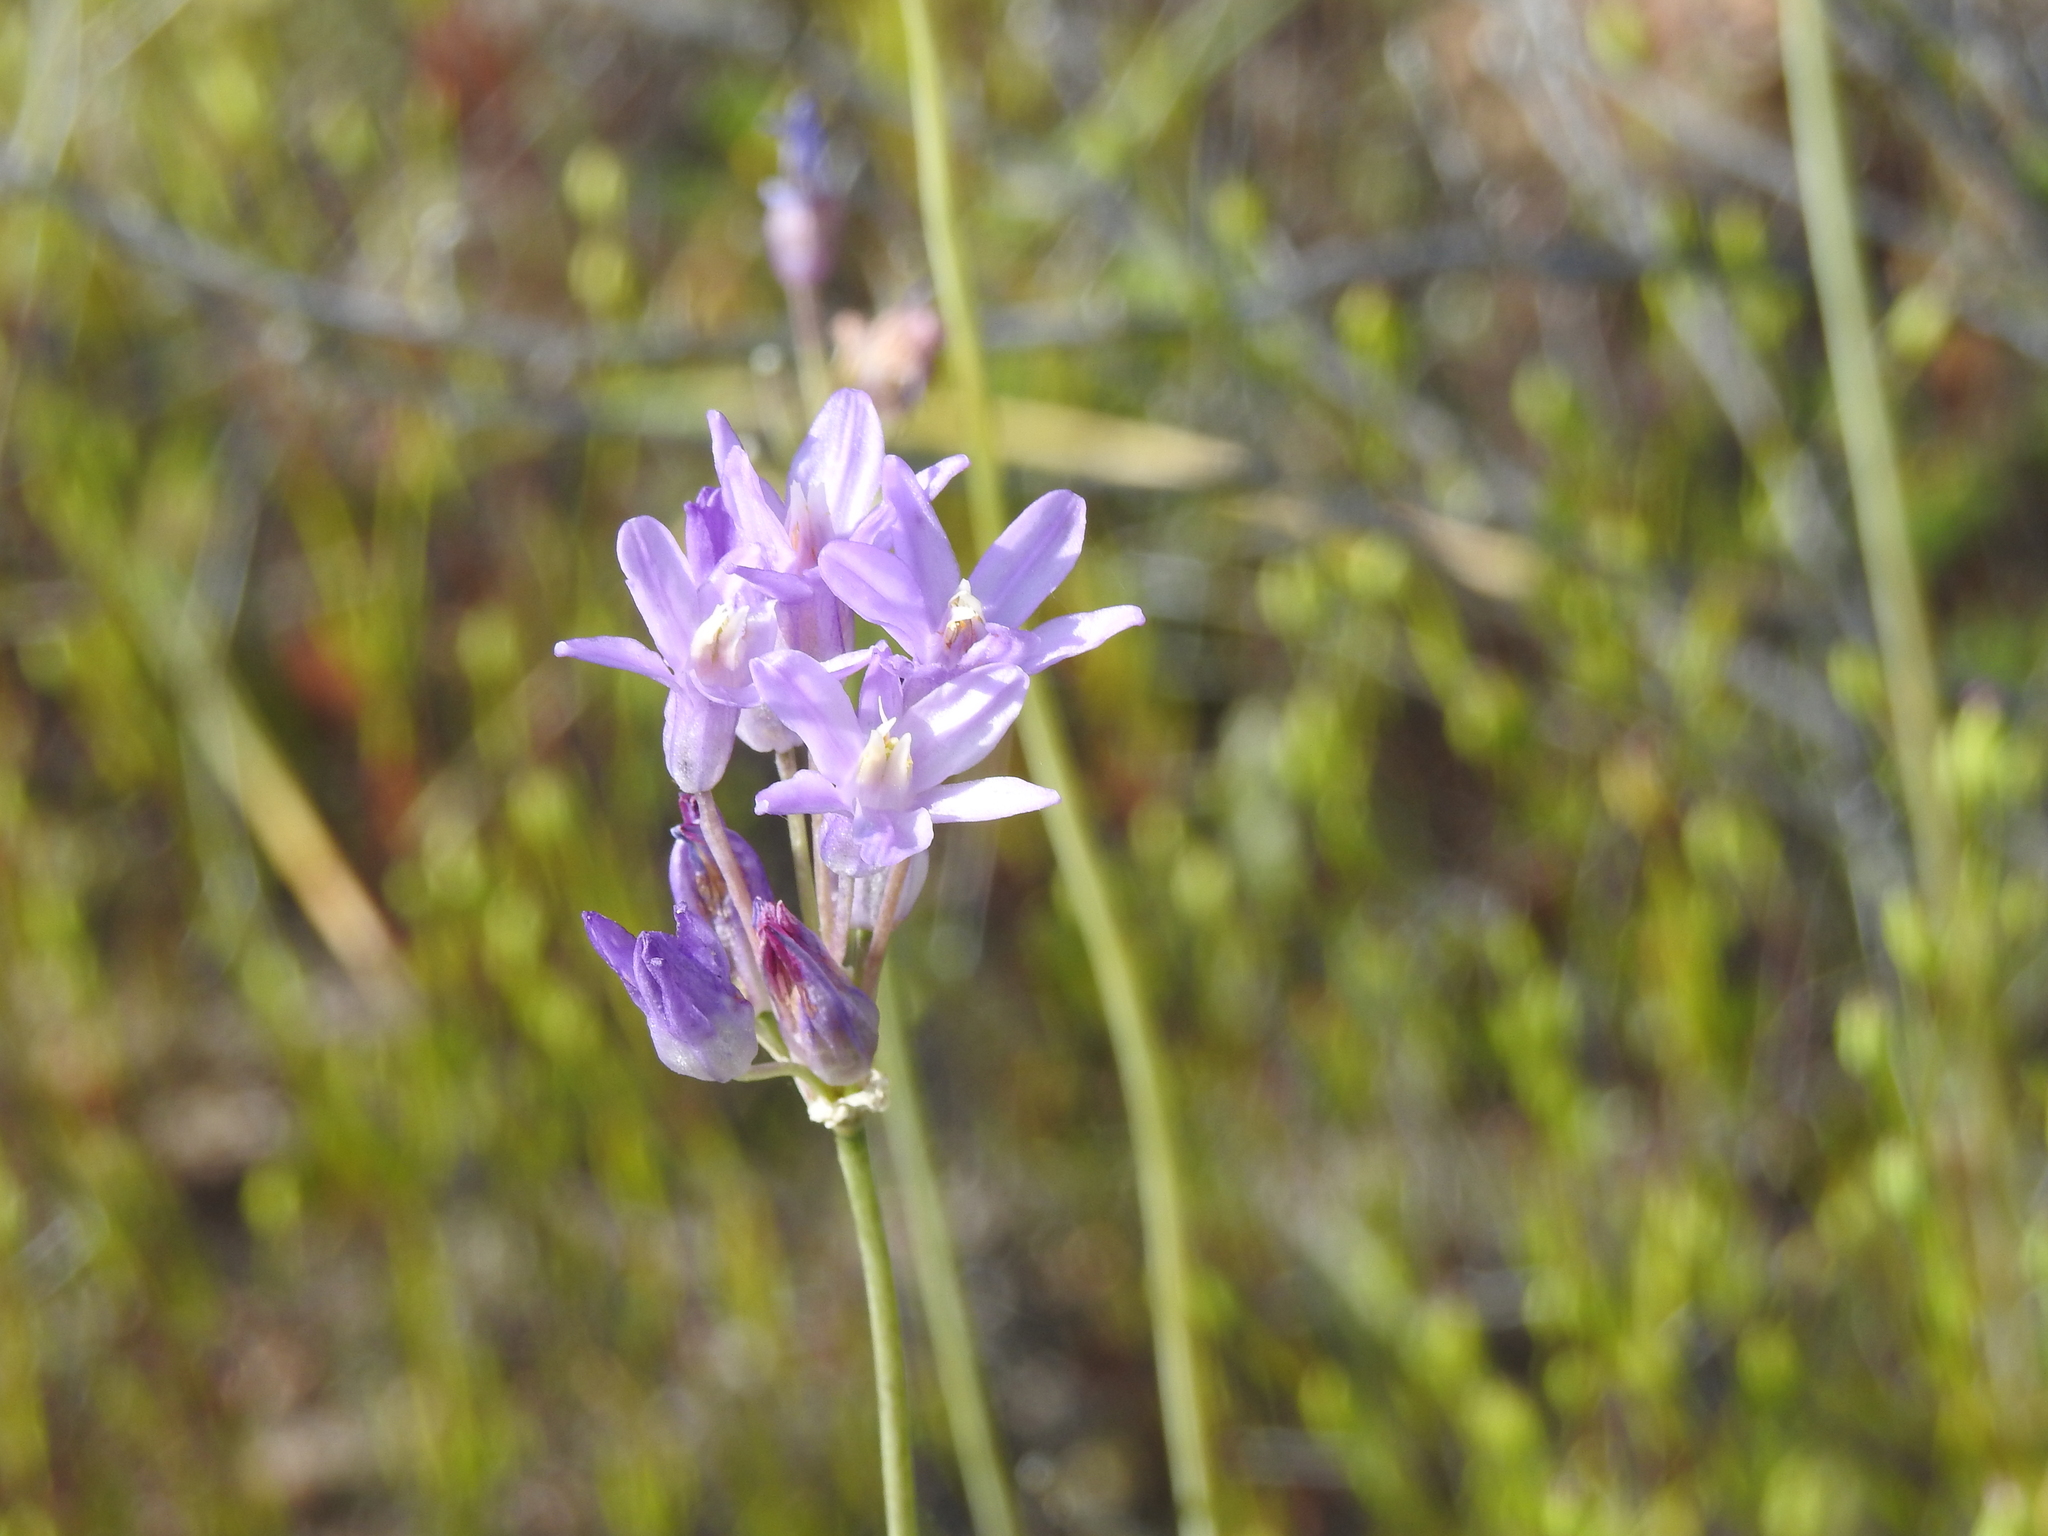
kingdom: Plantae
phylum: Tracheophyta
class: Liliopsida
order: Asparagales
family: Asparagaceae
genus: Dipterostemon
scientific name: Dipterostemon capitatus
